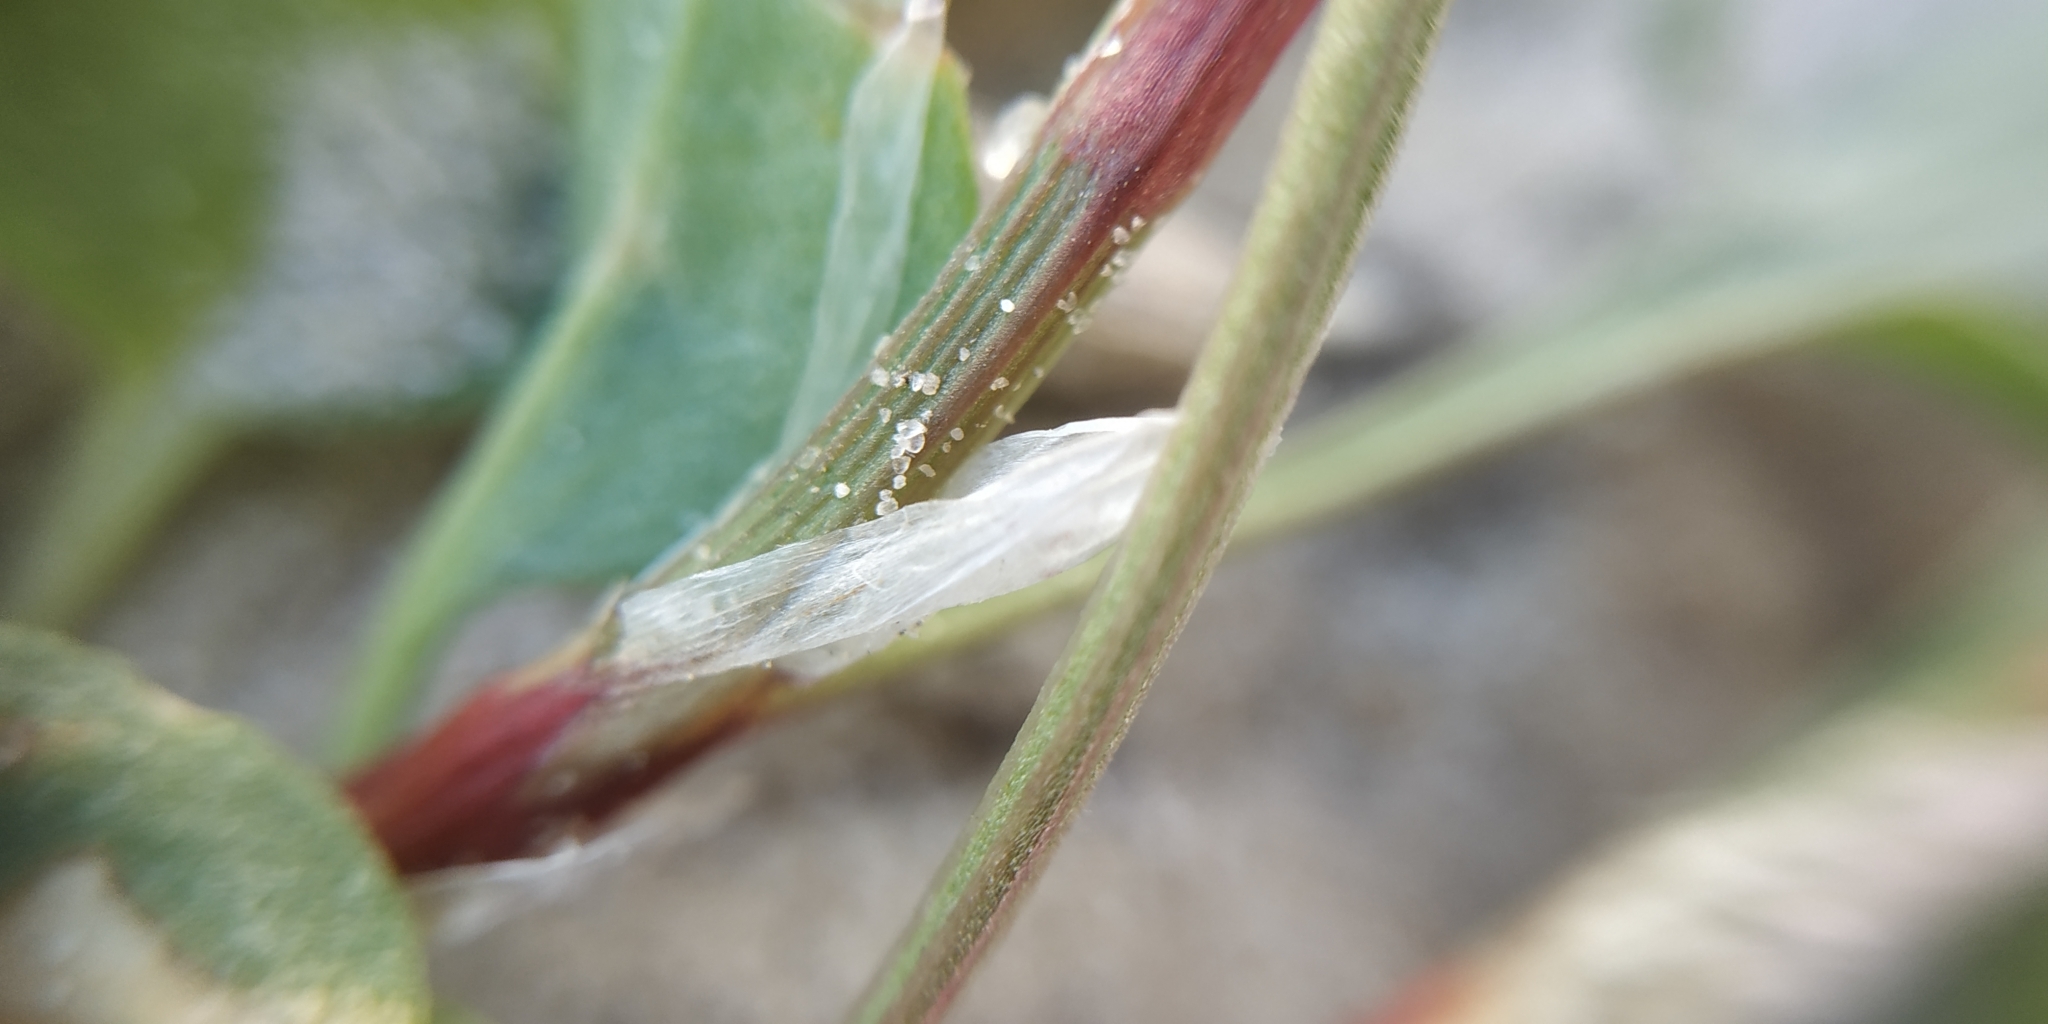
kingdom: Plantae
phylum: Tracheophyta
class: Magnoliopsida
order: Caryophyllales
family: Polygonaceae
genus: Rumex
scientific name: Rumex acetosella
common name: Common sheep sorrel
